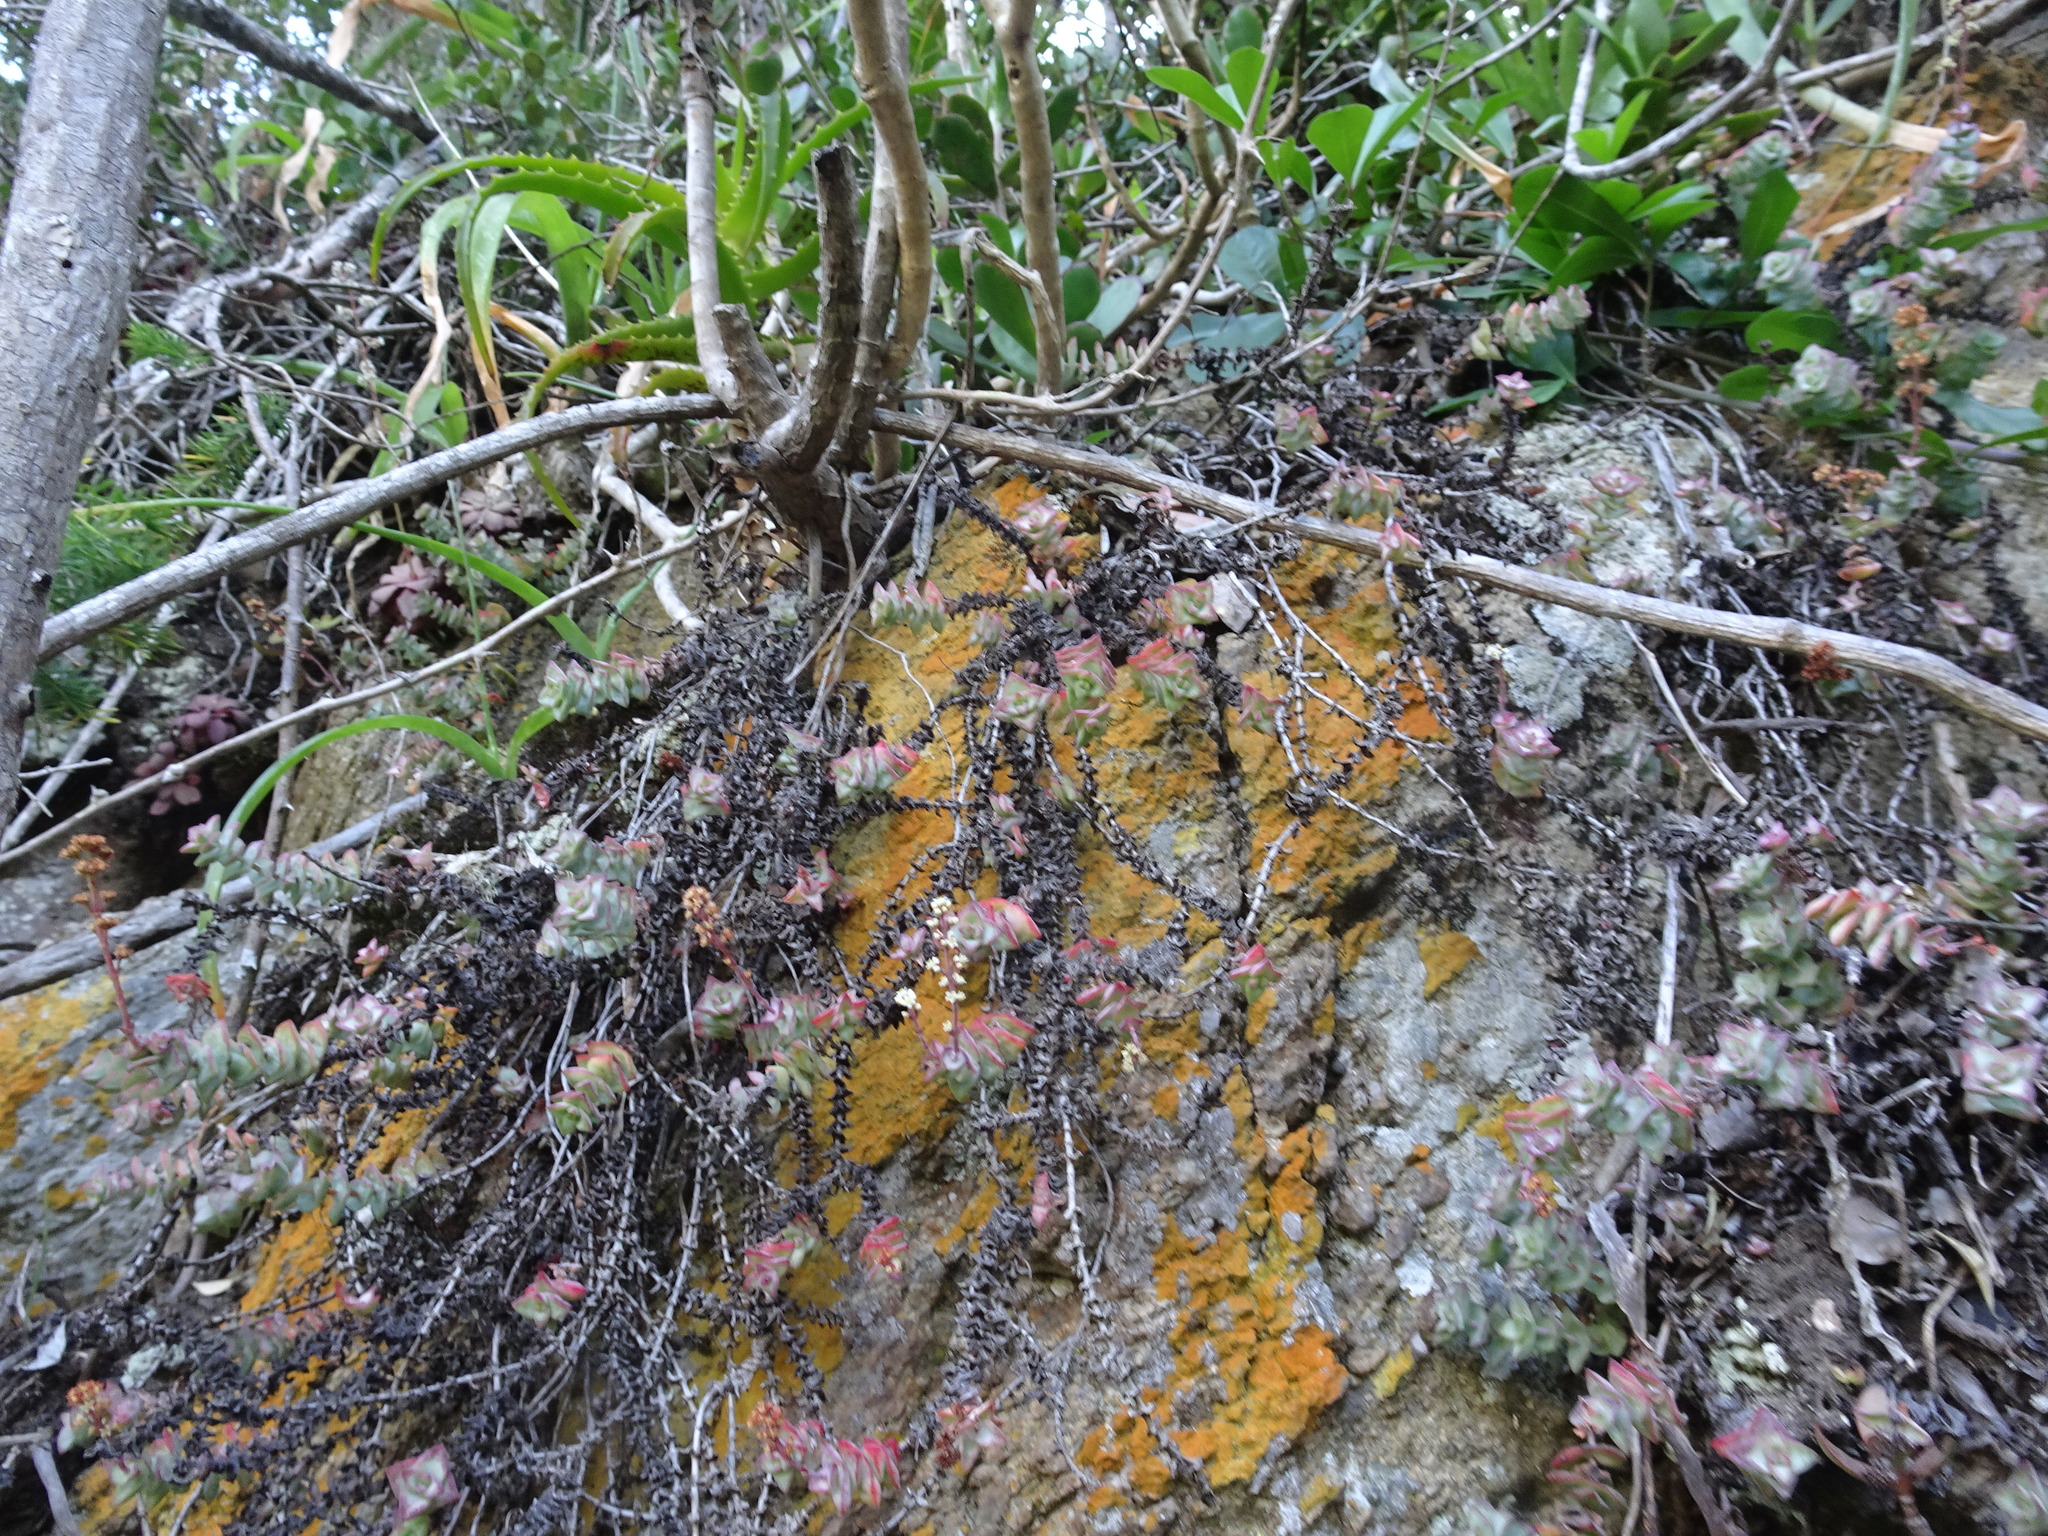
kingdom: Plantae
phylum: Tracheophyta
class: Magnoliopsida
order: Saxifragales
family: Crassulaceae
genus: Crassula
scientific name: Crassula perforata
